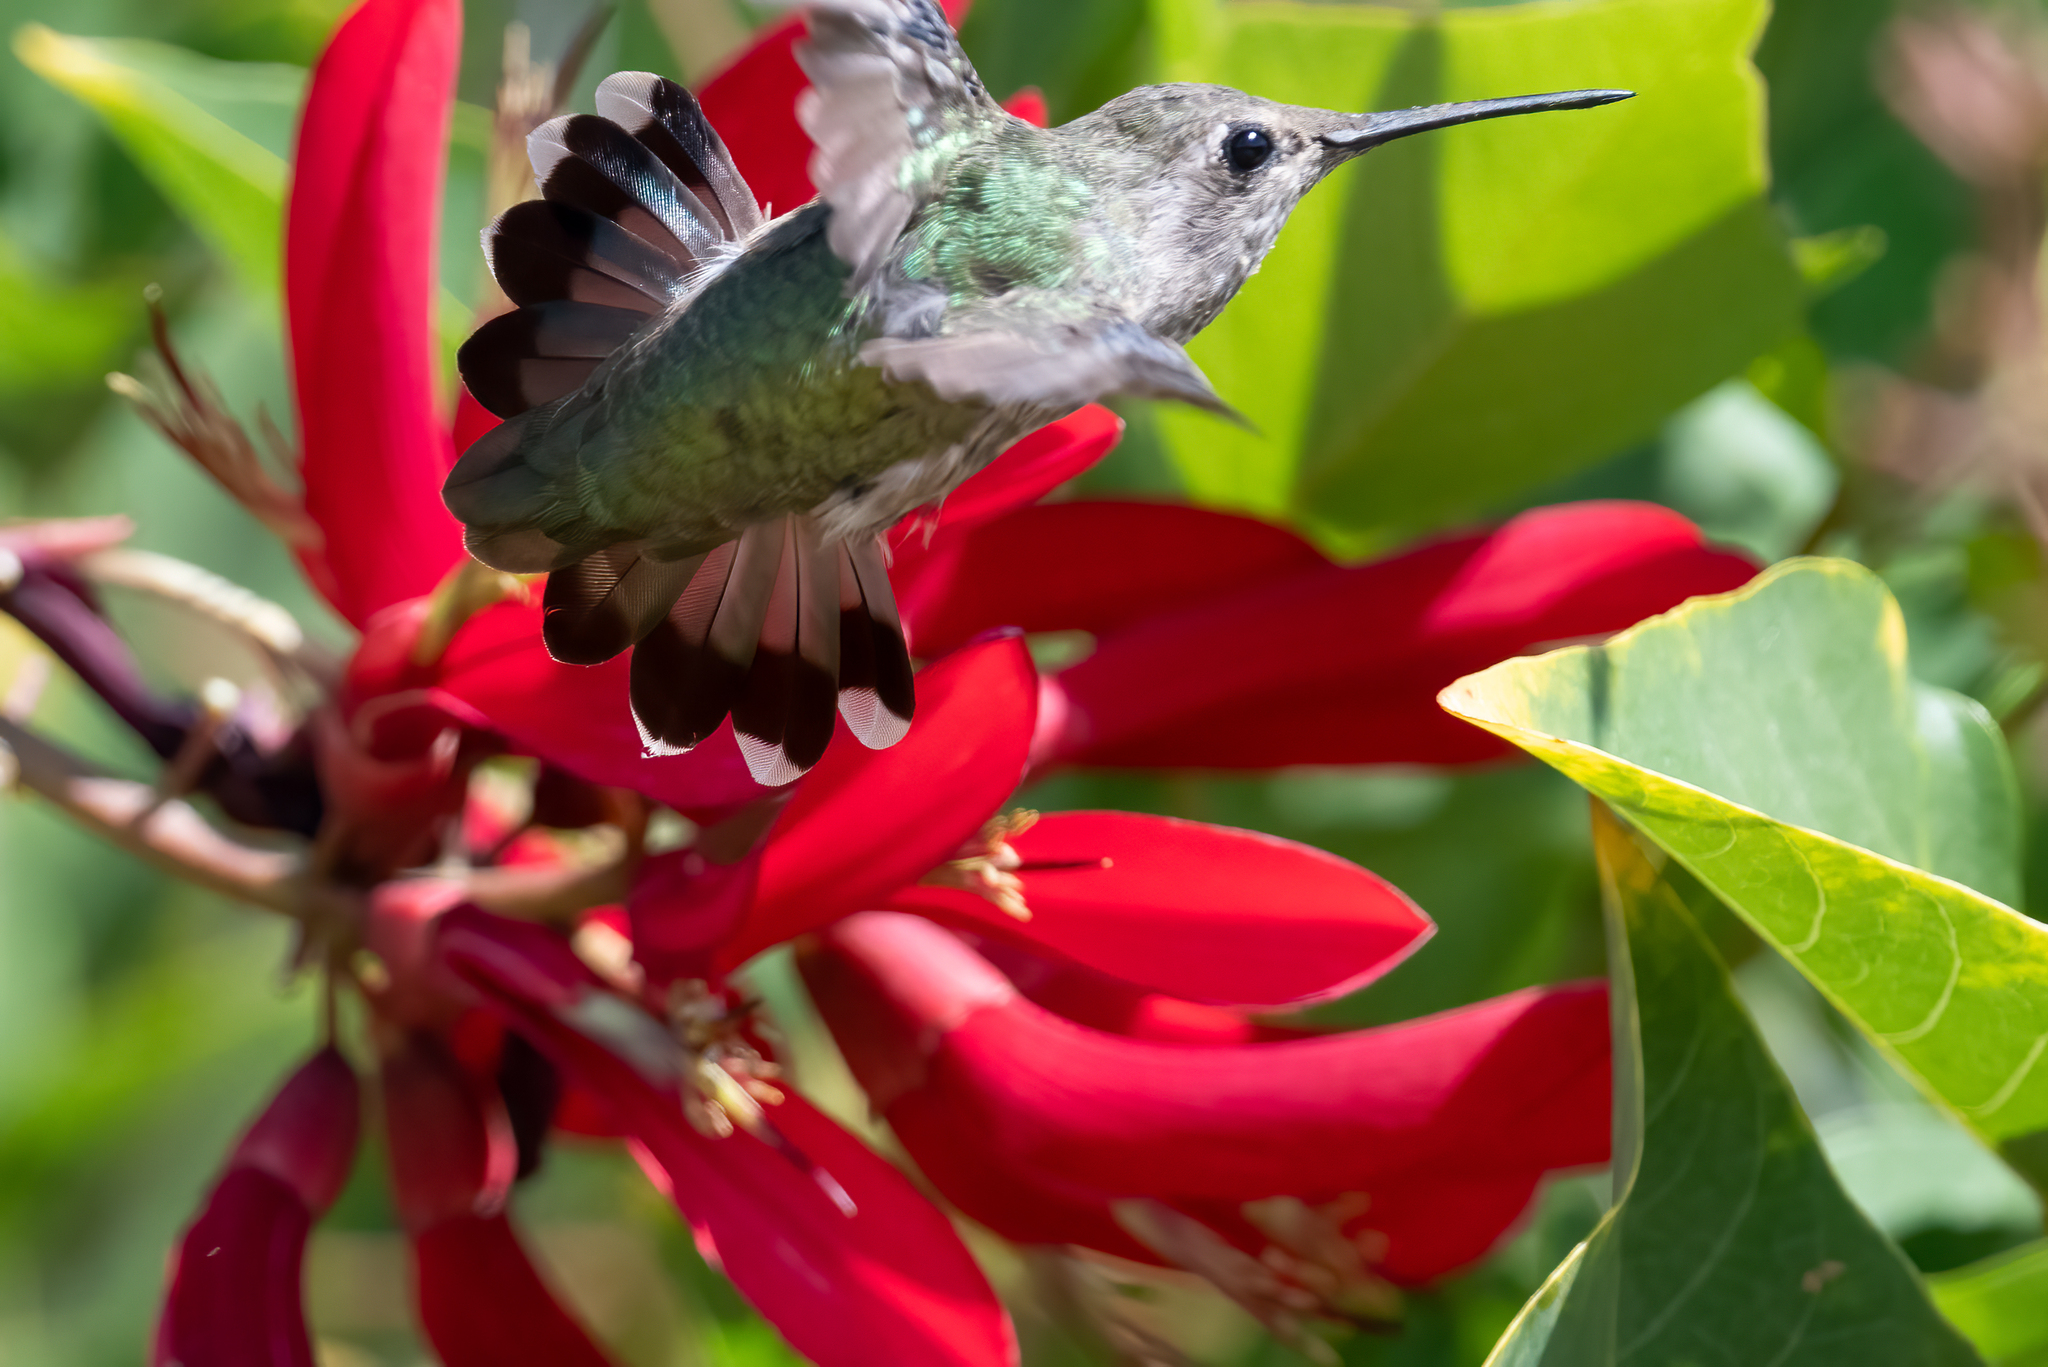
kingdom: Animalia
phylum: Chordata
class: Aves
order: Apodiformes
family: Trochilidae
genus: Calypte
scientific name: Calypte anna
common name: Anna's hummingbird
